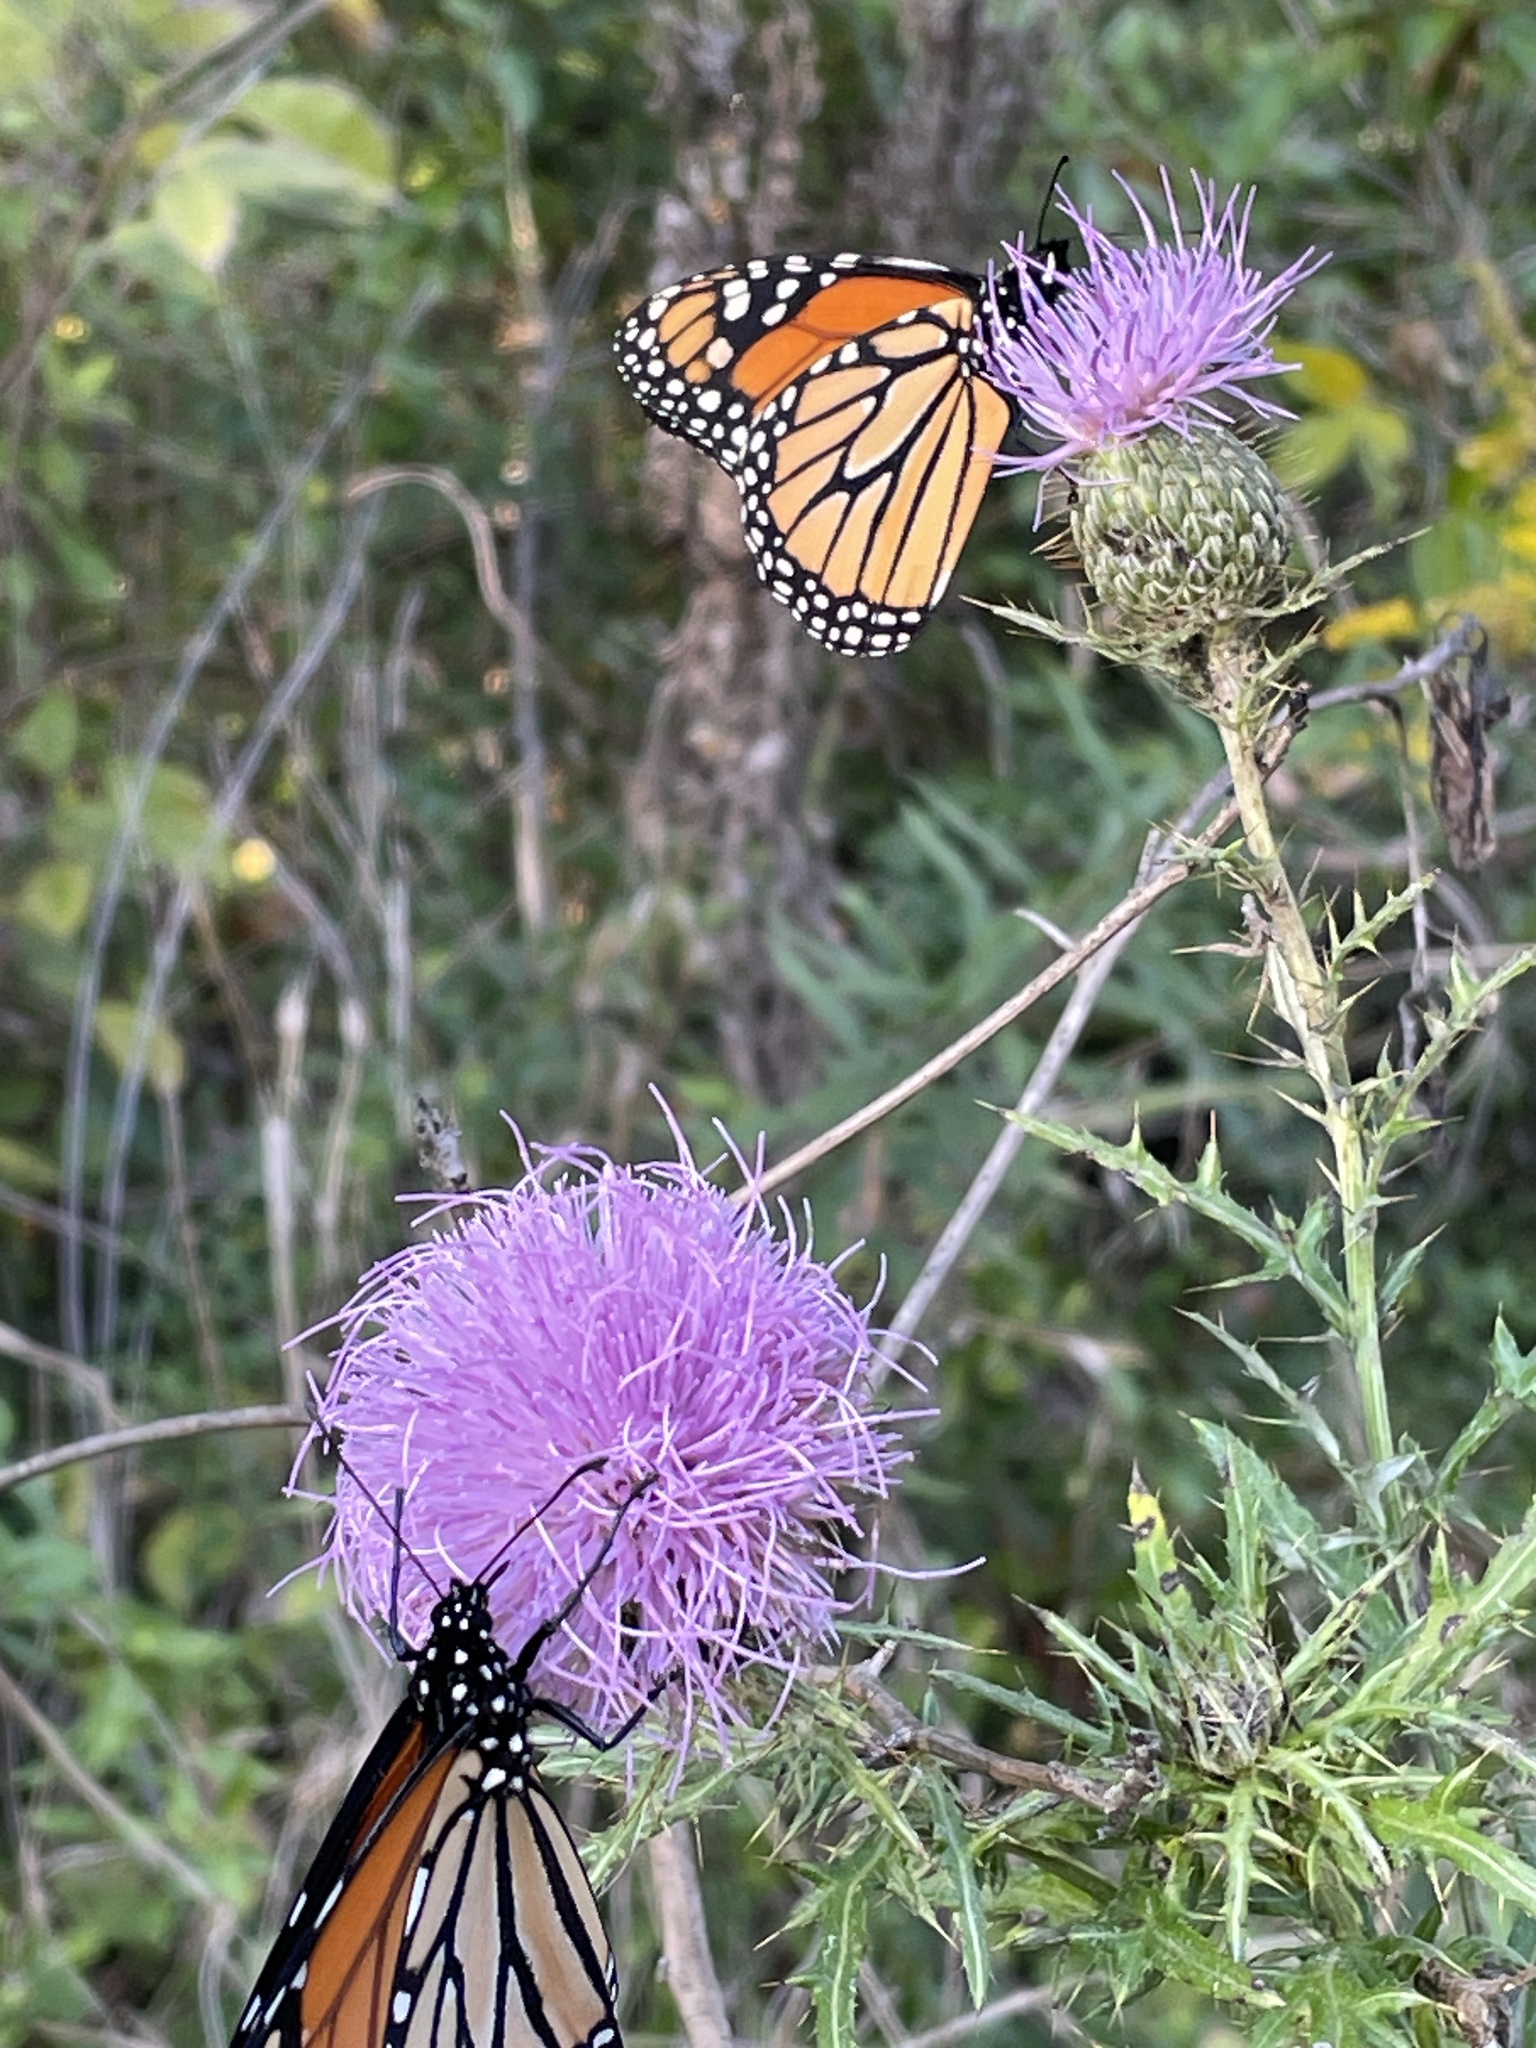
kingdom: Animalia
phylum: Arthropoda
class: Insecta
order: Lepidoptera
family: Nymphalidae
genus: Danaus
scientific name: Danaus plexippus
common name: Monarch
